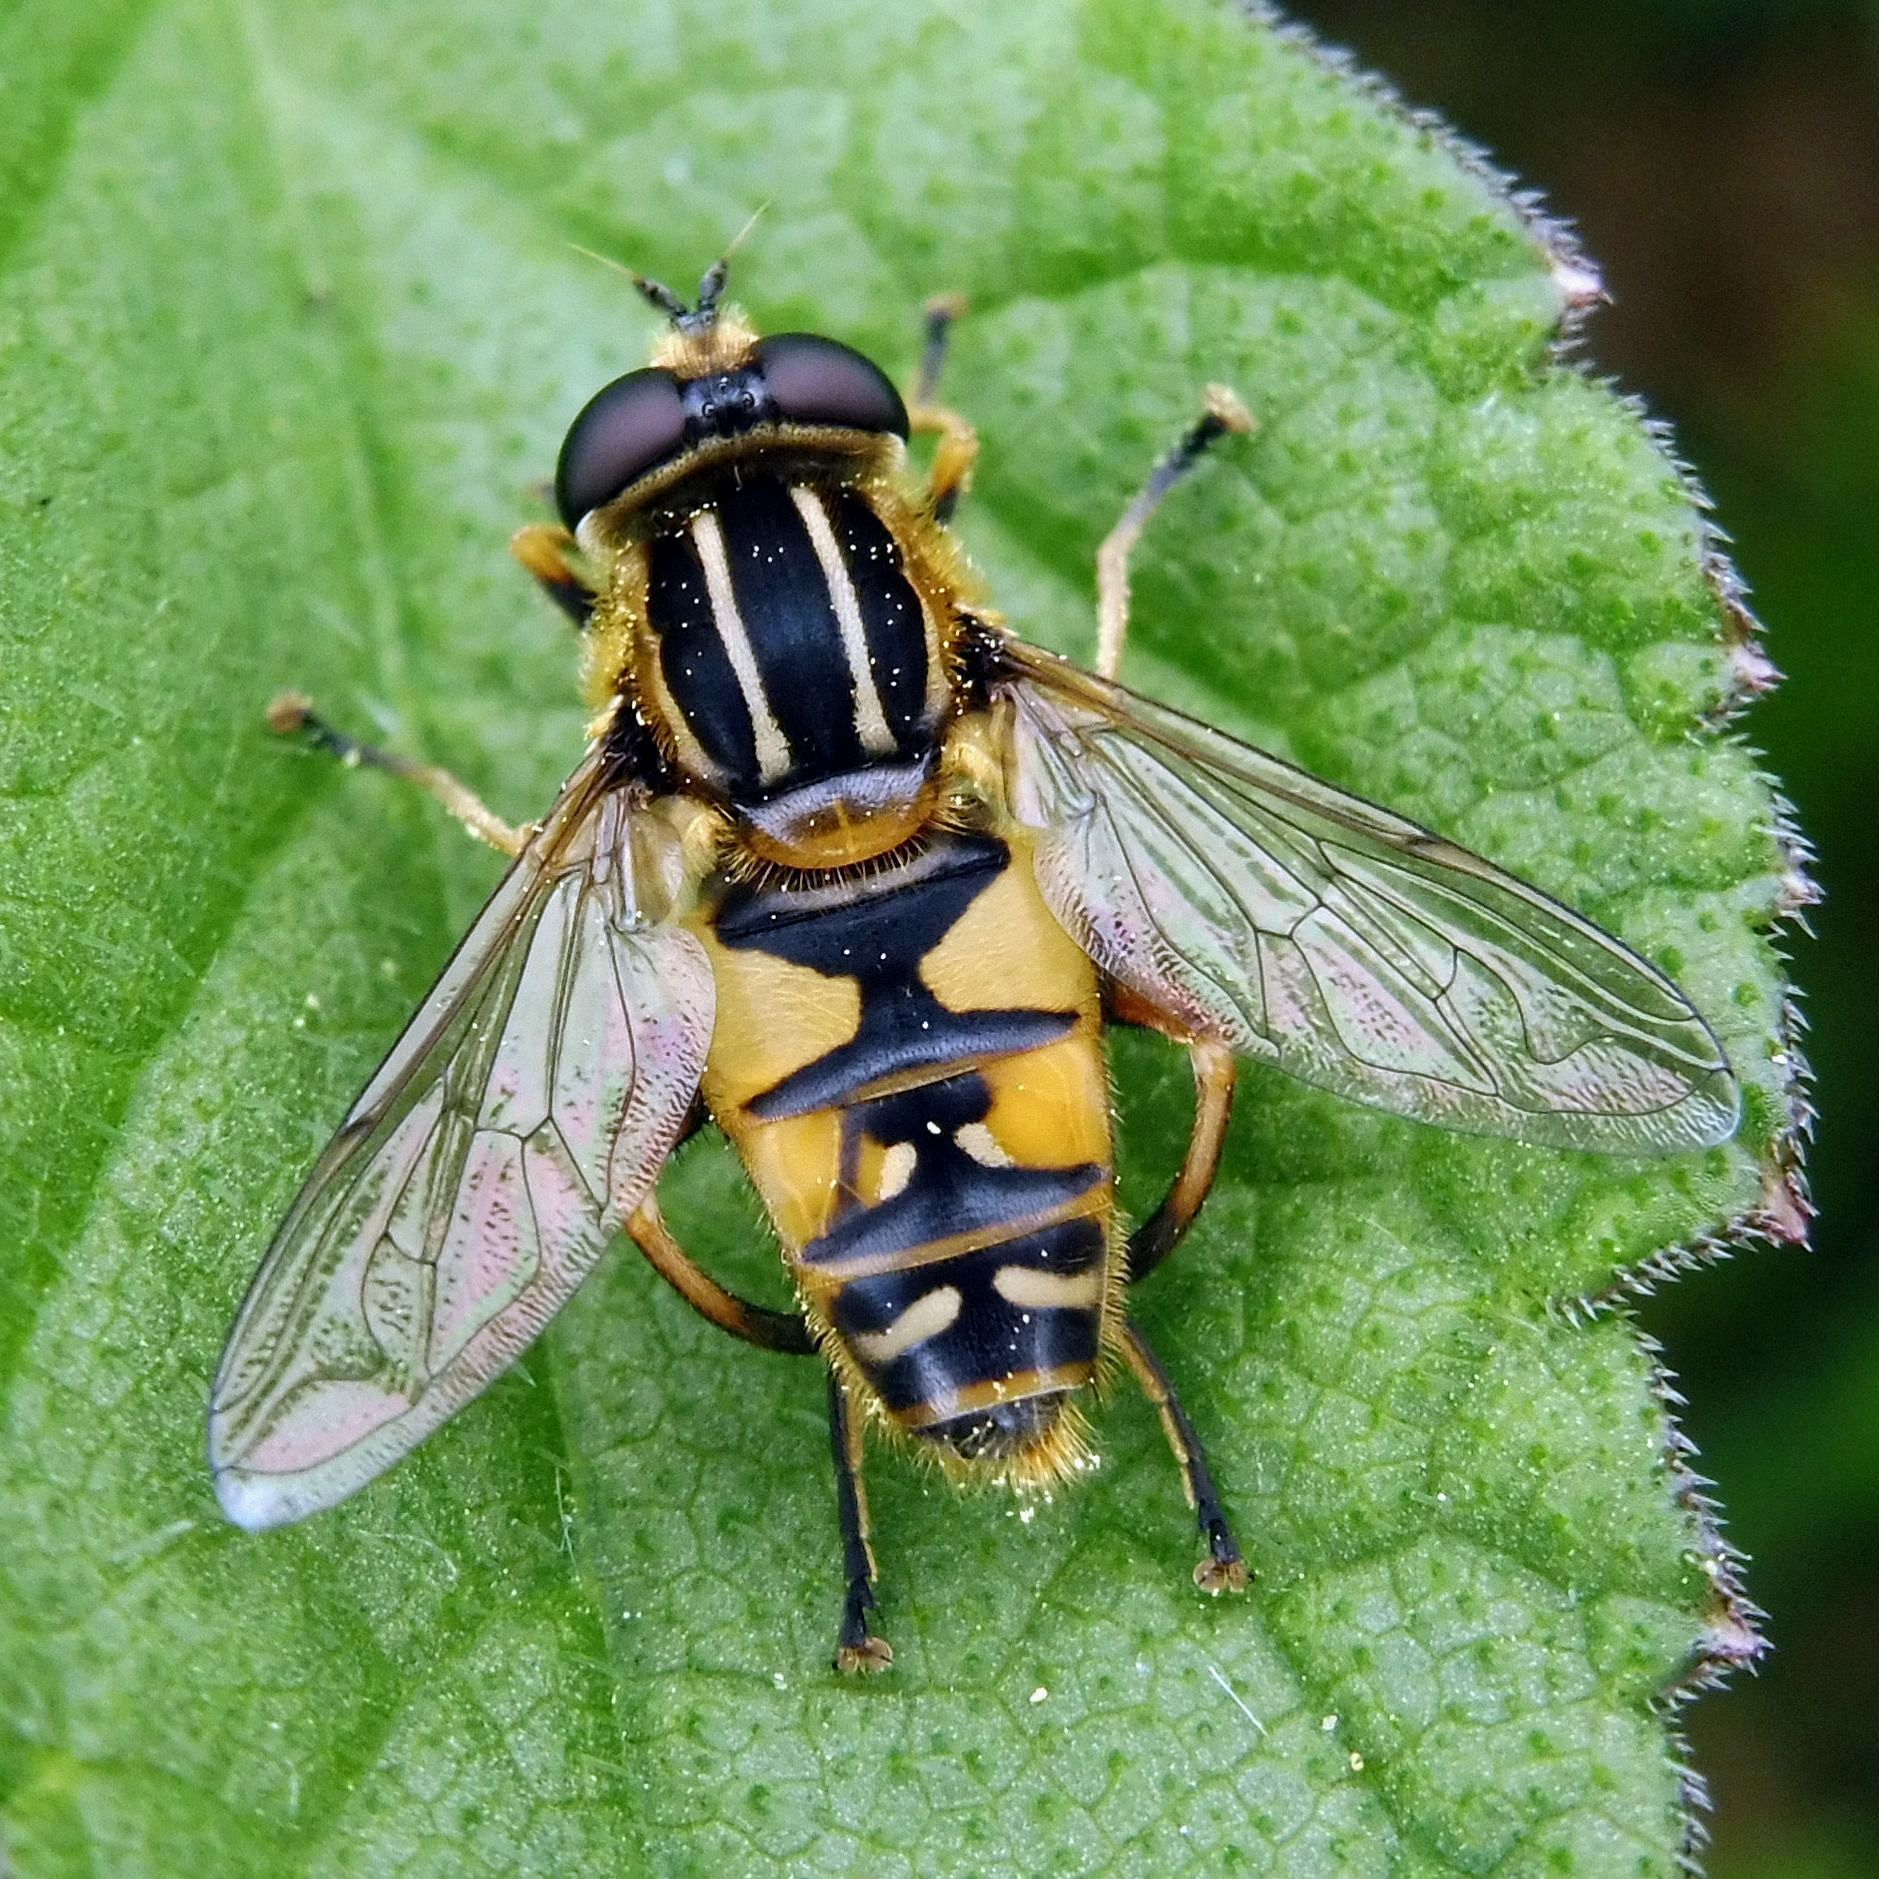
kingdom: Animalia
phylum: Arthropoda
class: Insecta
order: Diptera
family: Syrphidae
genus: Helophilus
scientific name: Helophilus pendulus
